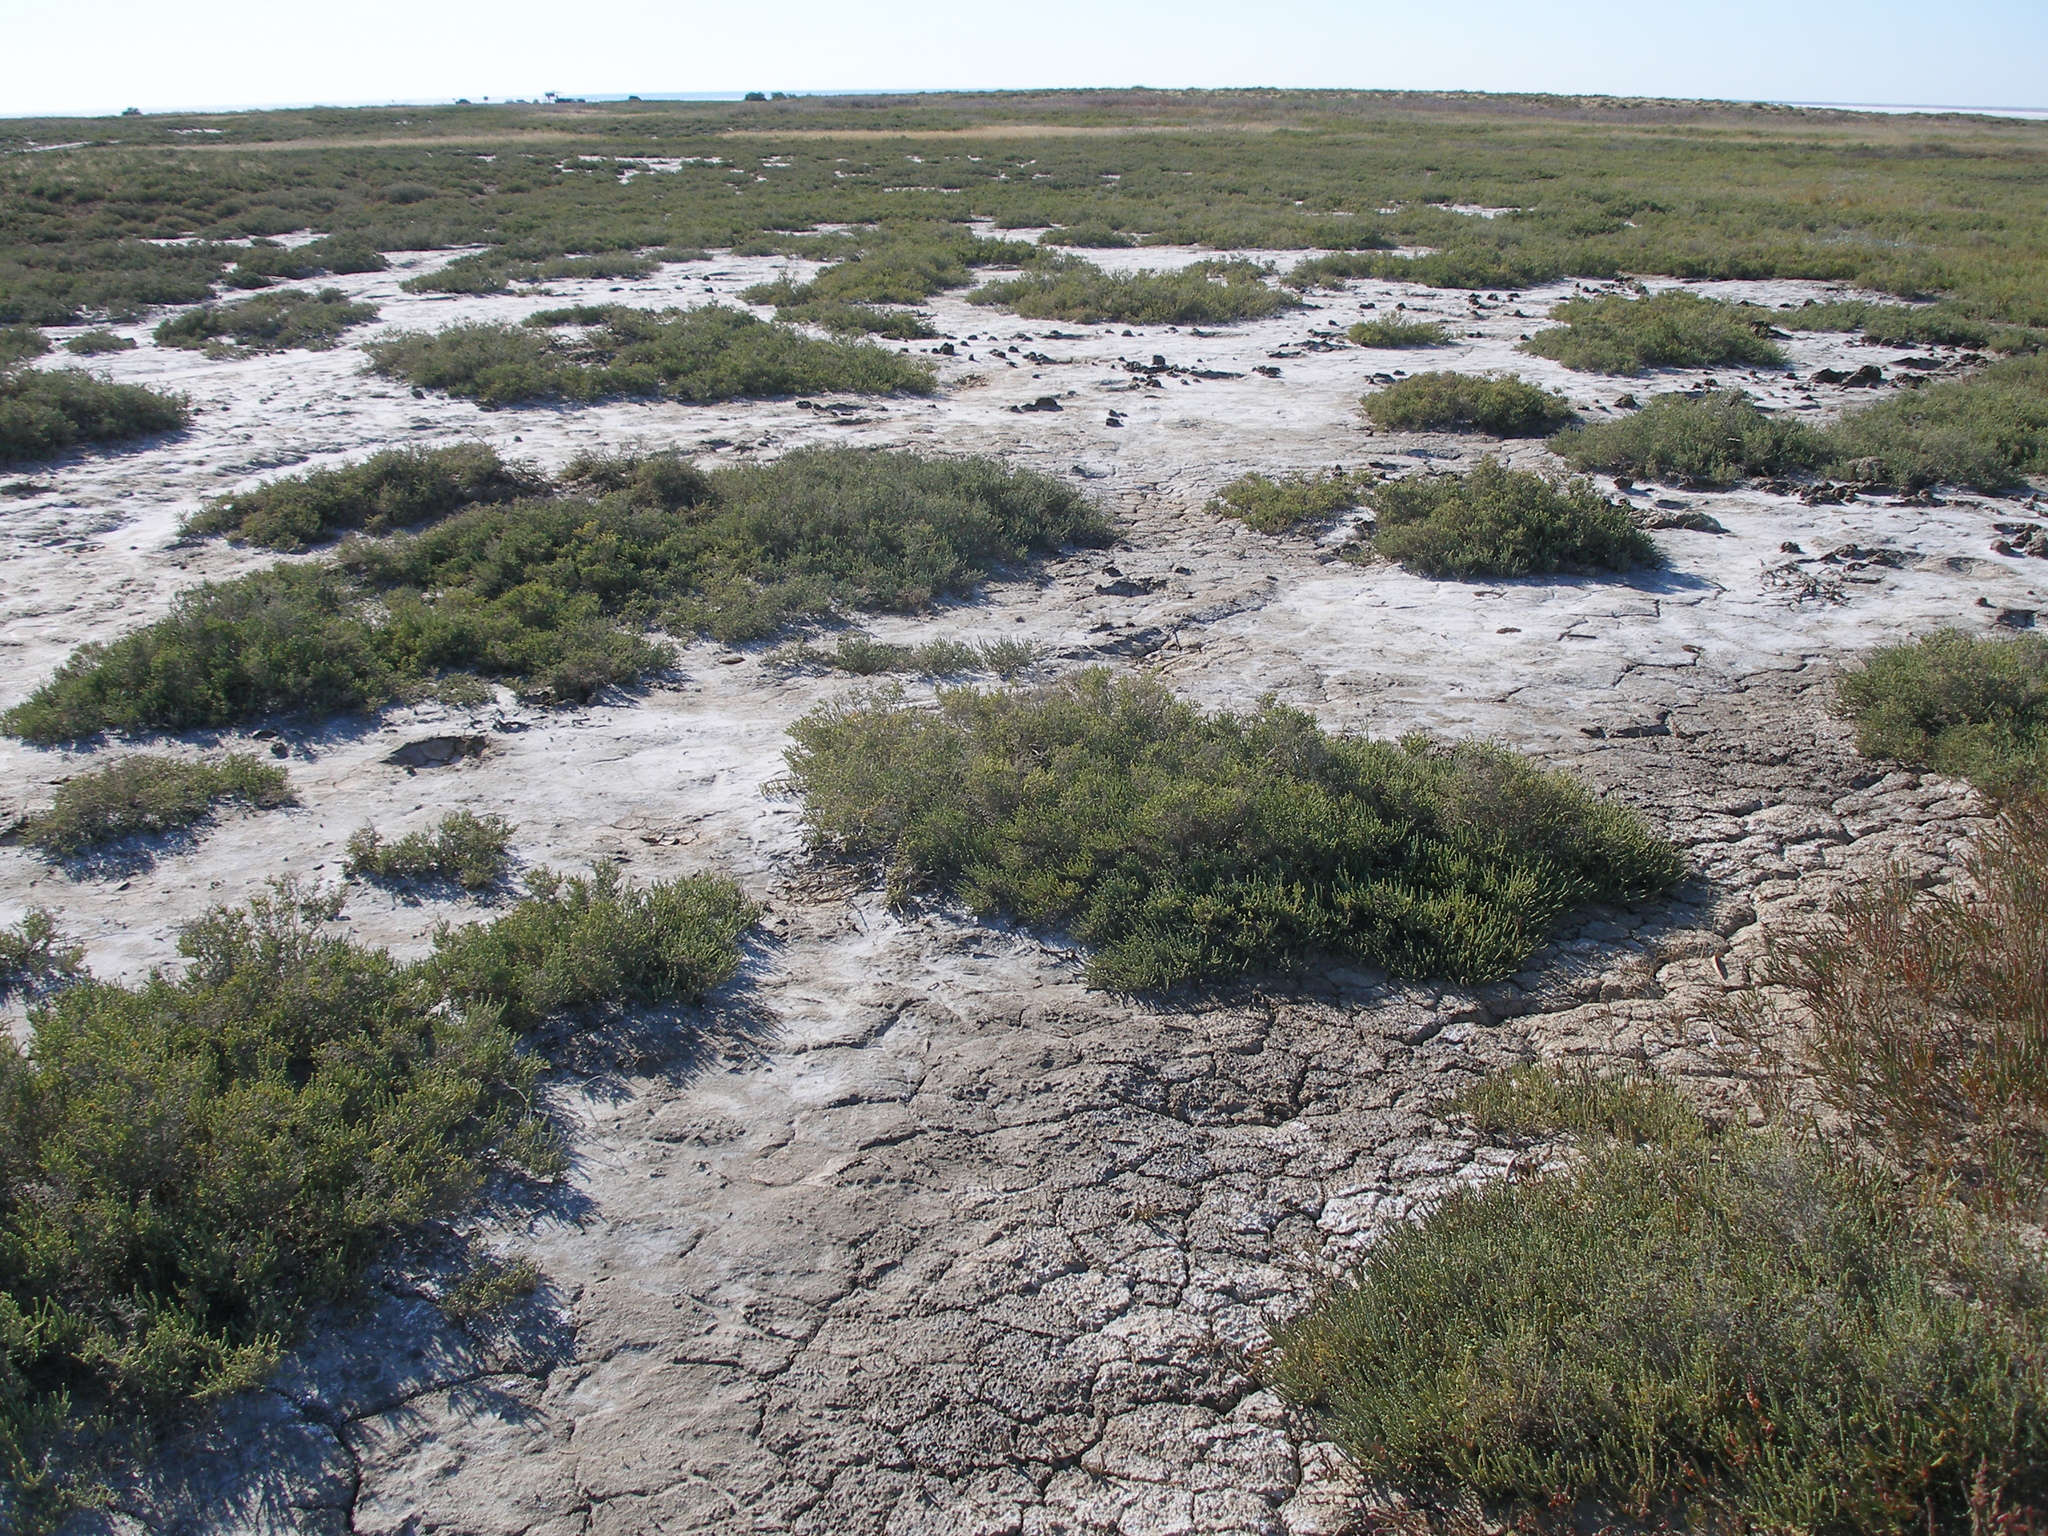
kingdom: Plantae
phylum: Tracheophyta
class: Magnoliopsida
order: Caryophyllales
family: Amaranthaceae
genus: Halocnemum
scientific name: Halocnemum strobilaceum
